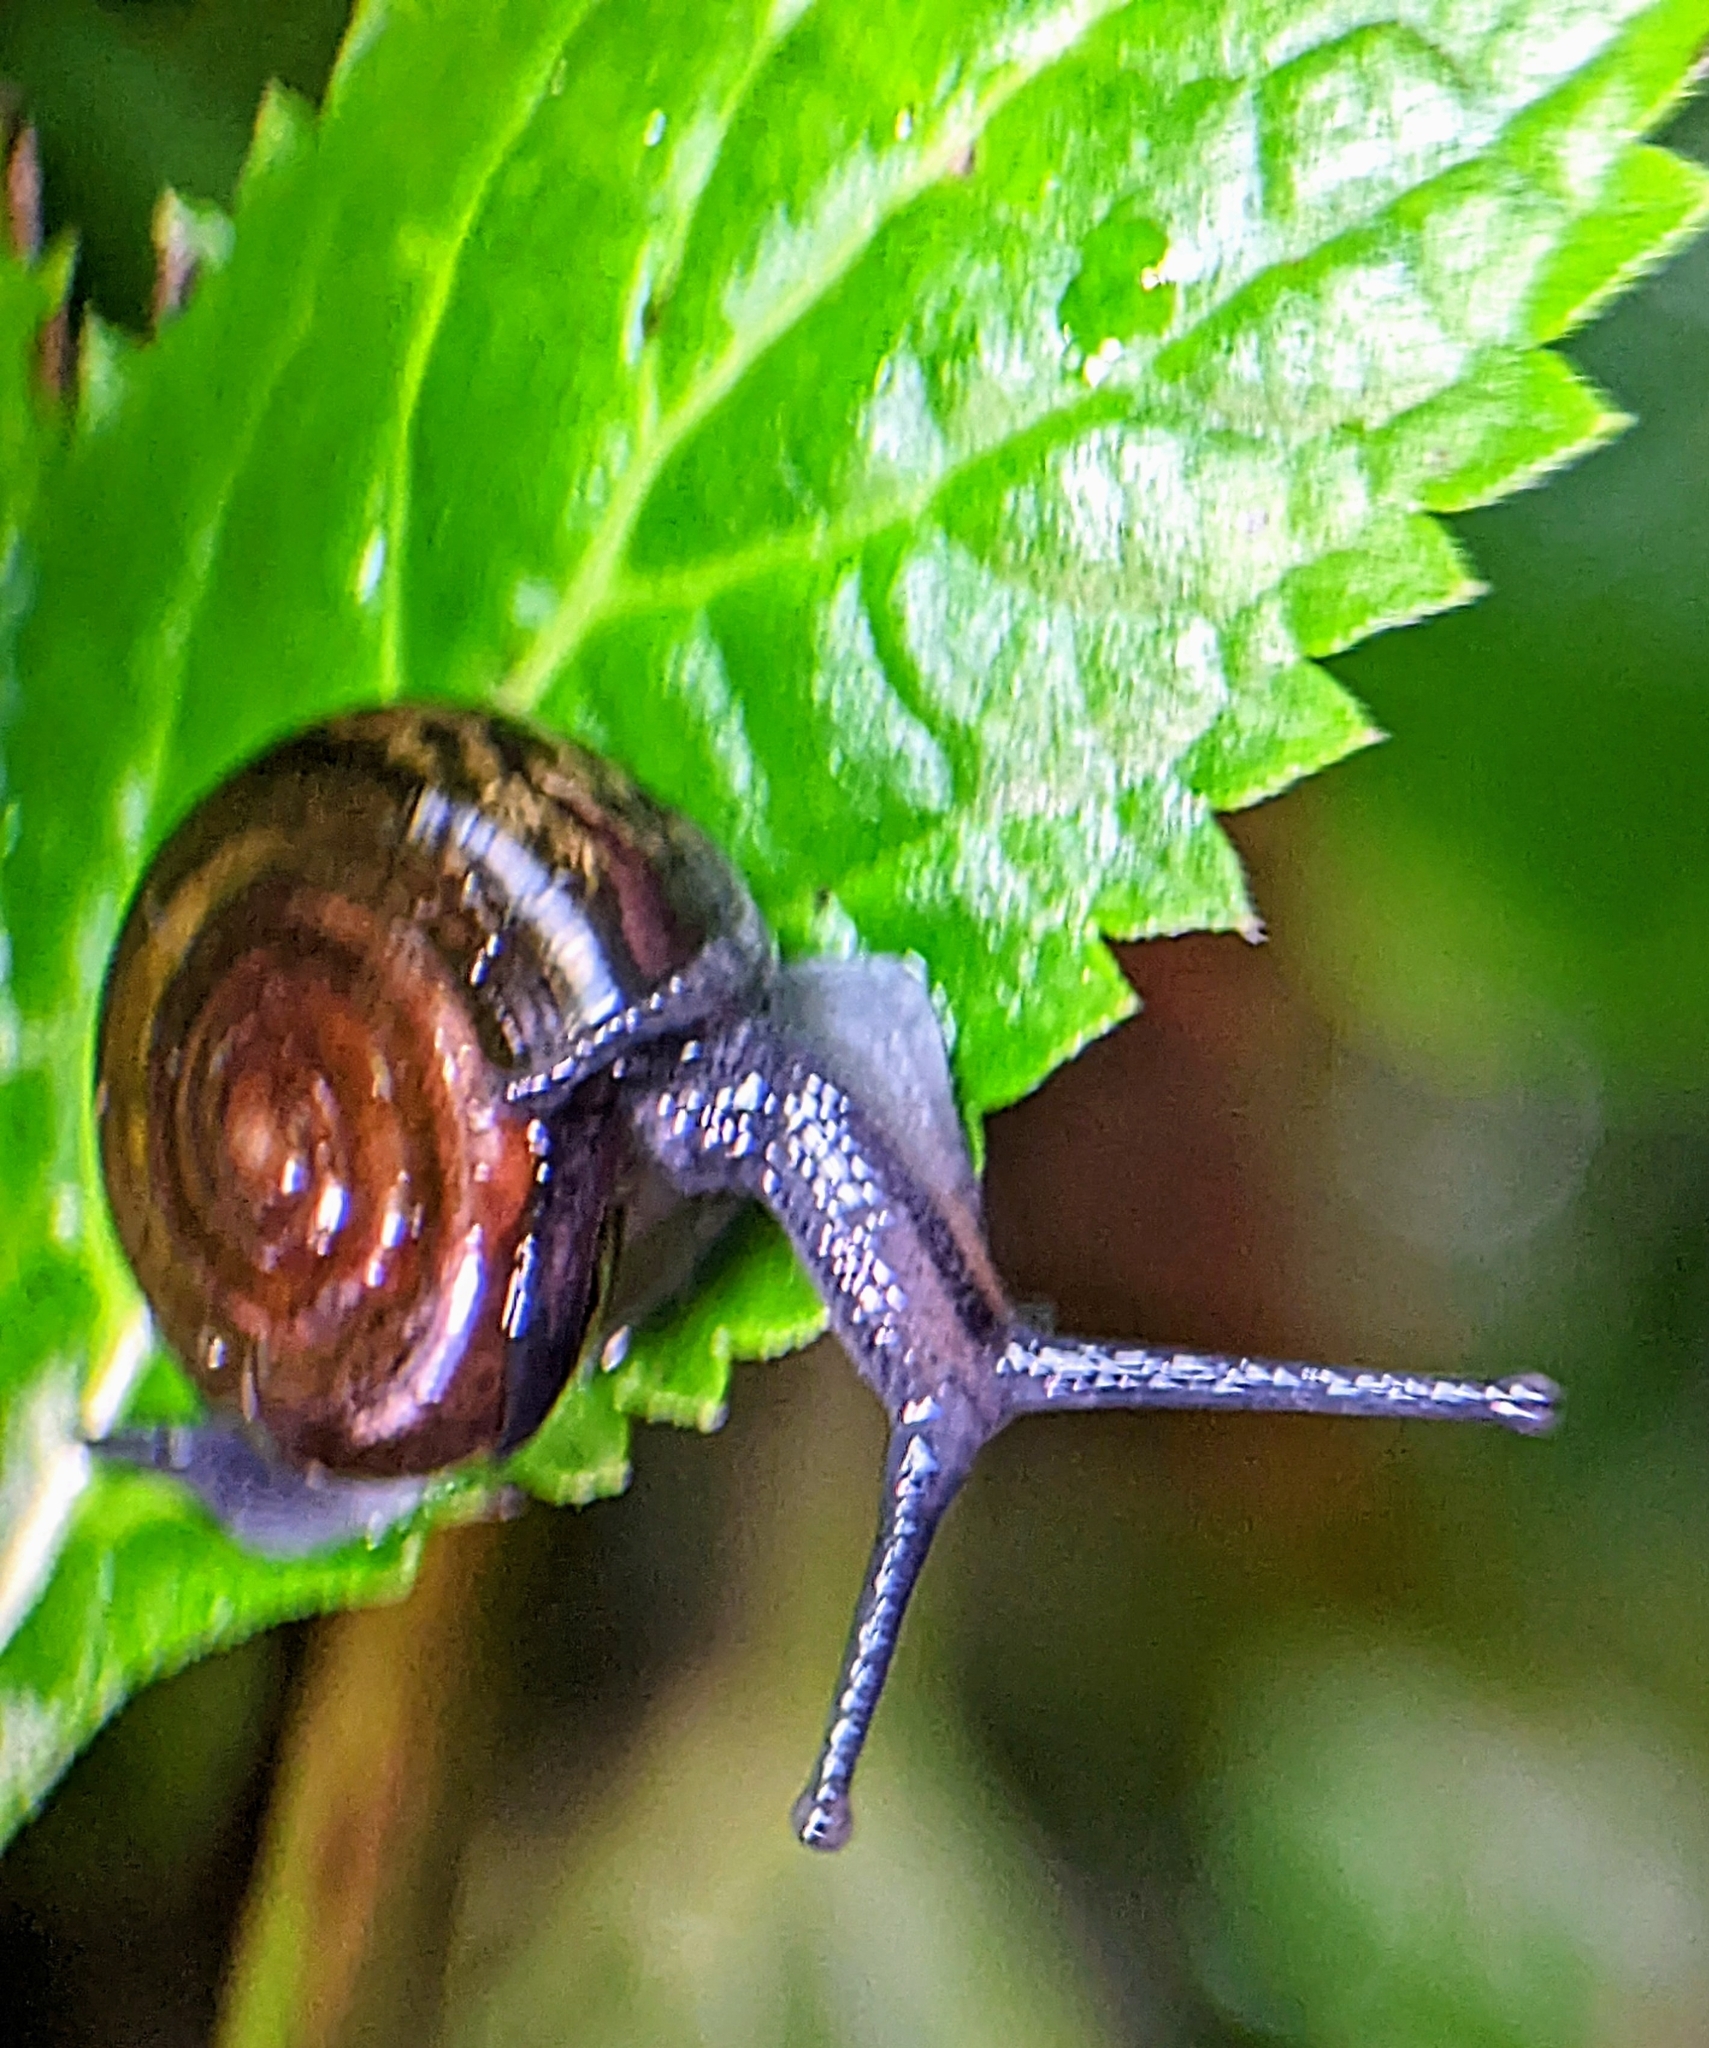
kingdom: Animalia
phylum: Mollusca
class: Gastropoda
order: Stylommatophora
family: Ariophantidae
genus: Sarika
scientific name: Sarika resplendens
